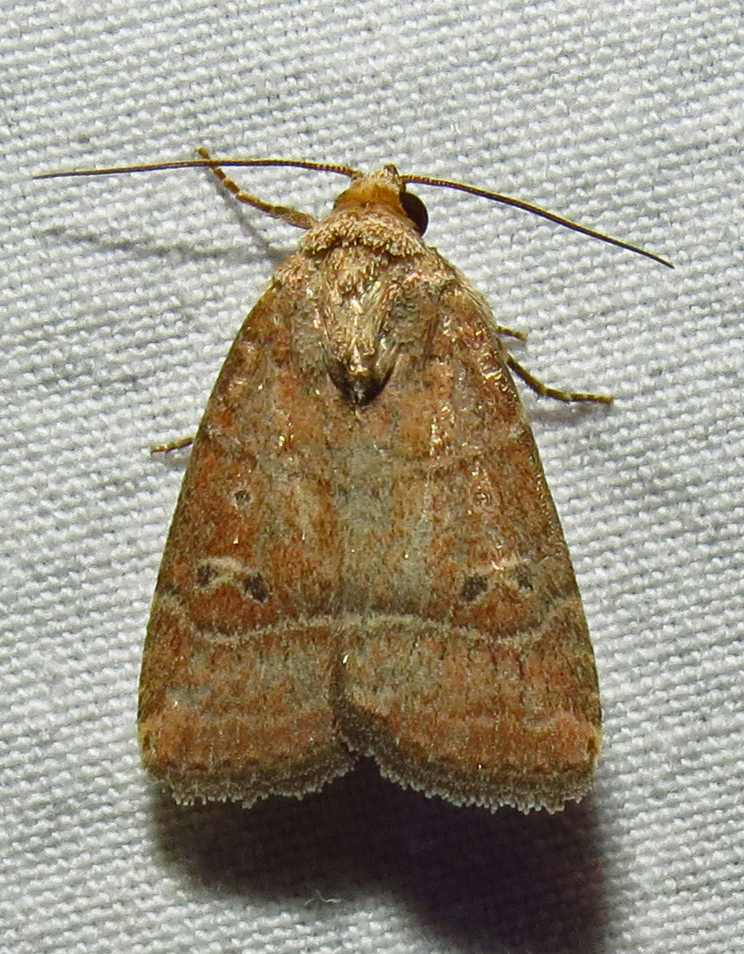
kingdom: Animalia
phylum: Arthropoda
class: Insecta
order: Lepidoptera
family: Noctuidae
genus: Elaphria
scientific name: Elaphria grata
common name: Grateful midget moth
